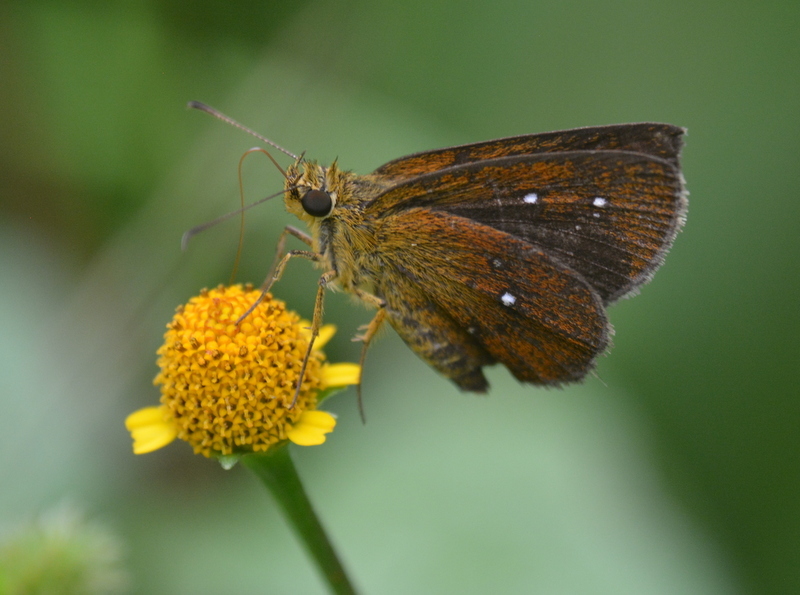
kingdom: Animalia
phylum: Arthropoda
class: Insecta
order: Lepidoptera
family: Hesperiidae
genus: Iambrix
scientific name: Iambrix salsala
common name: Chestnut bob
